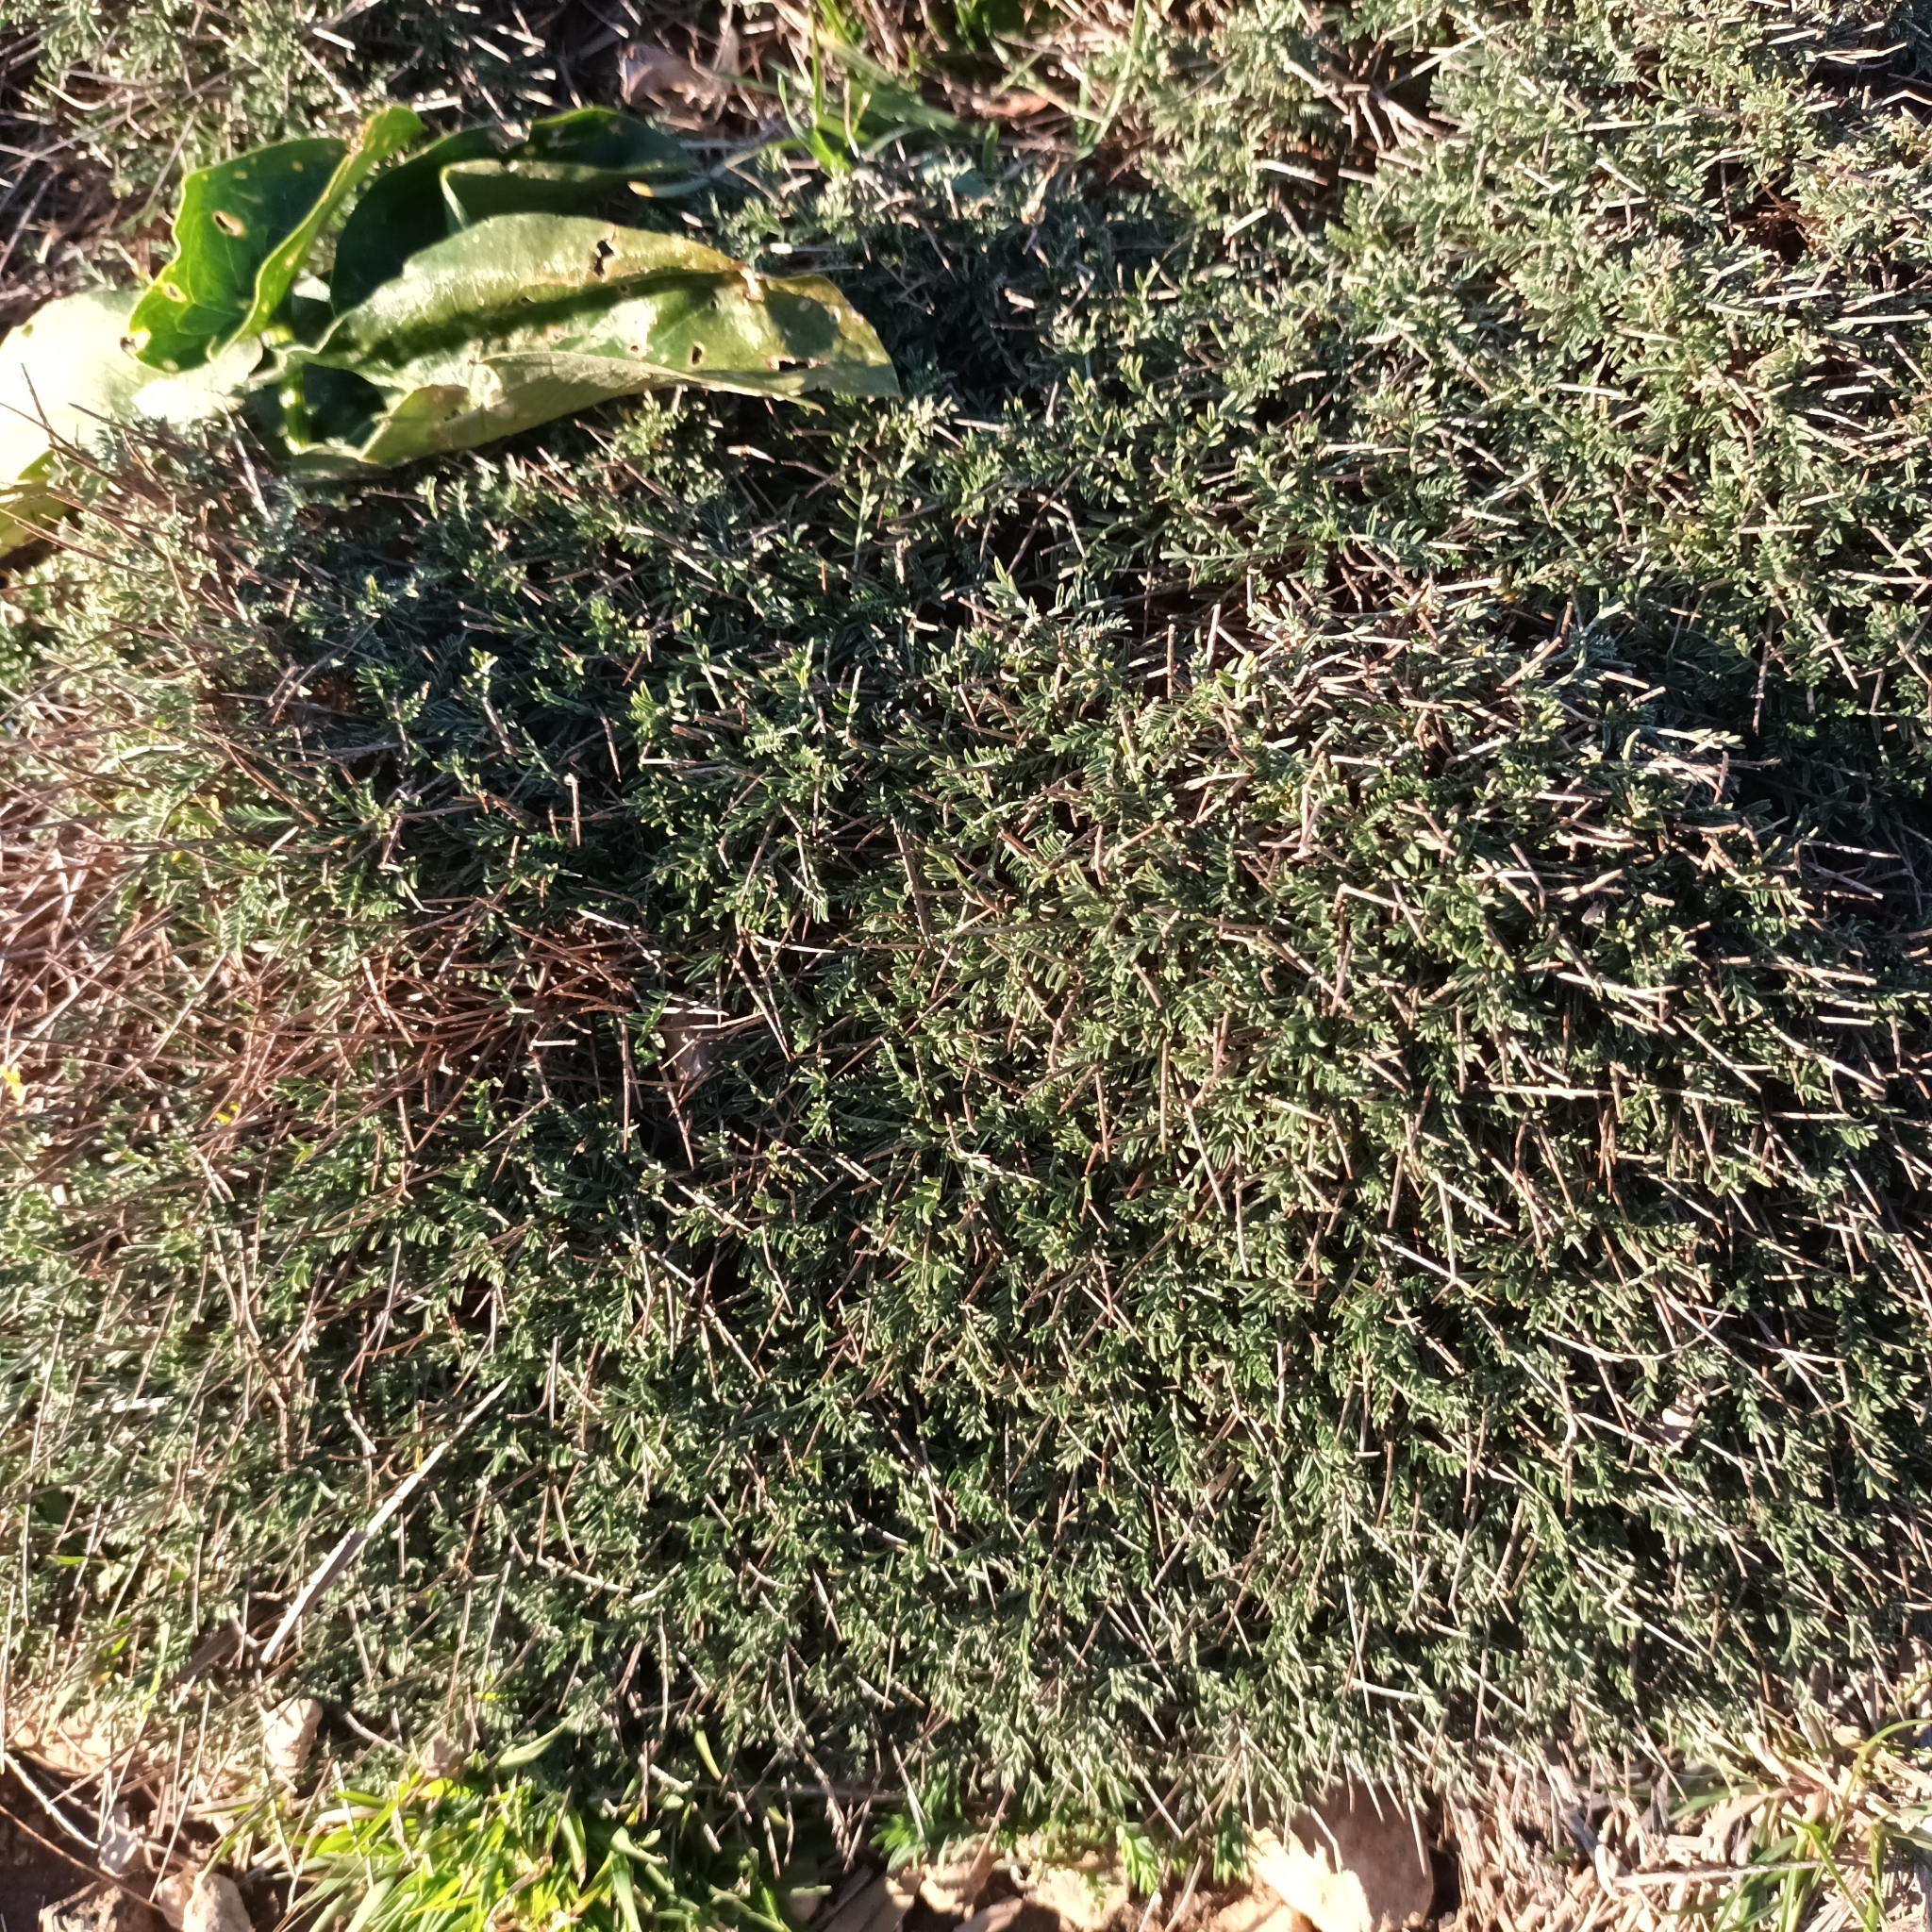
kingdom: Plantae
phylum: Tracheophyta
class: Magnoliopsida
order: Fabales
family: Fabaceae
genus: Astragalus
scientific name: Astragalus balearicus
